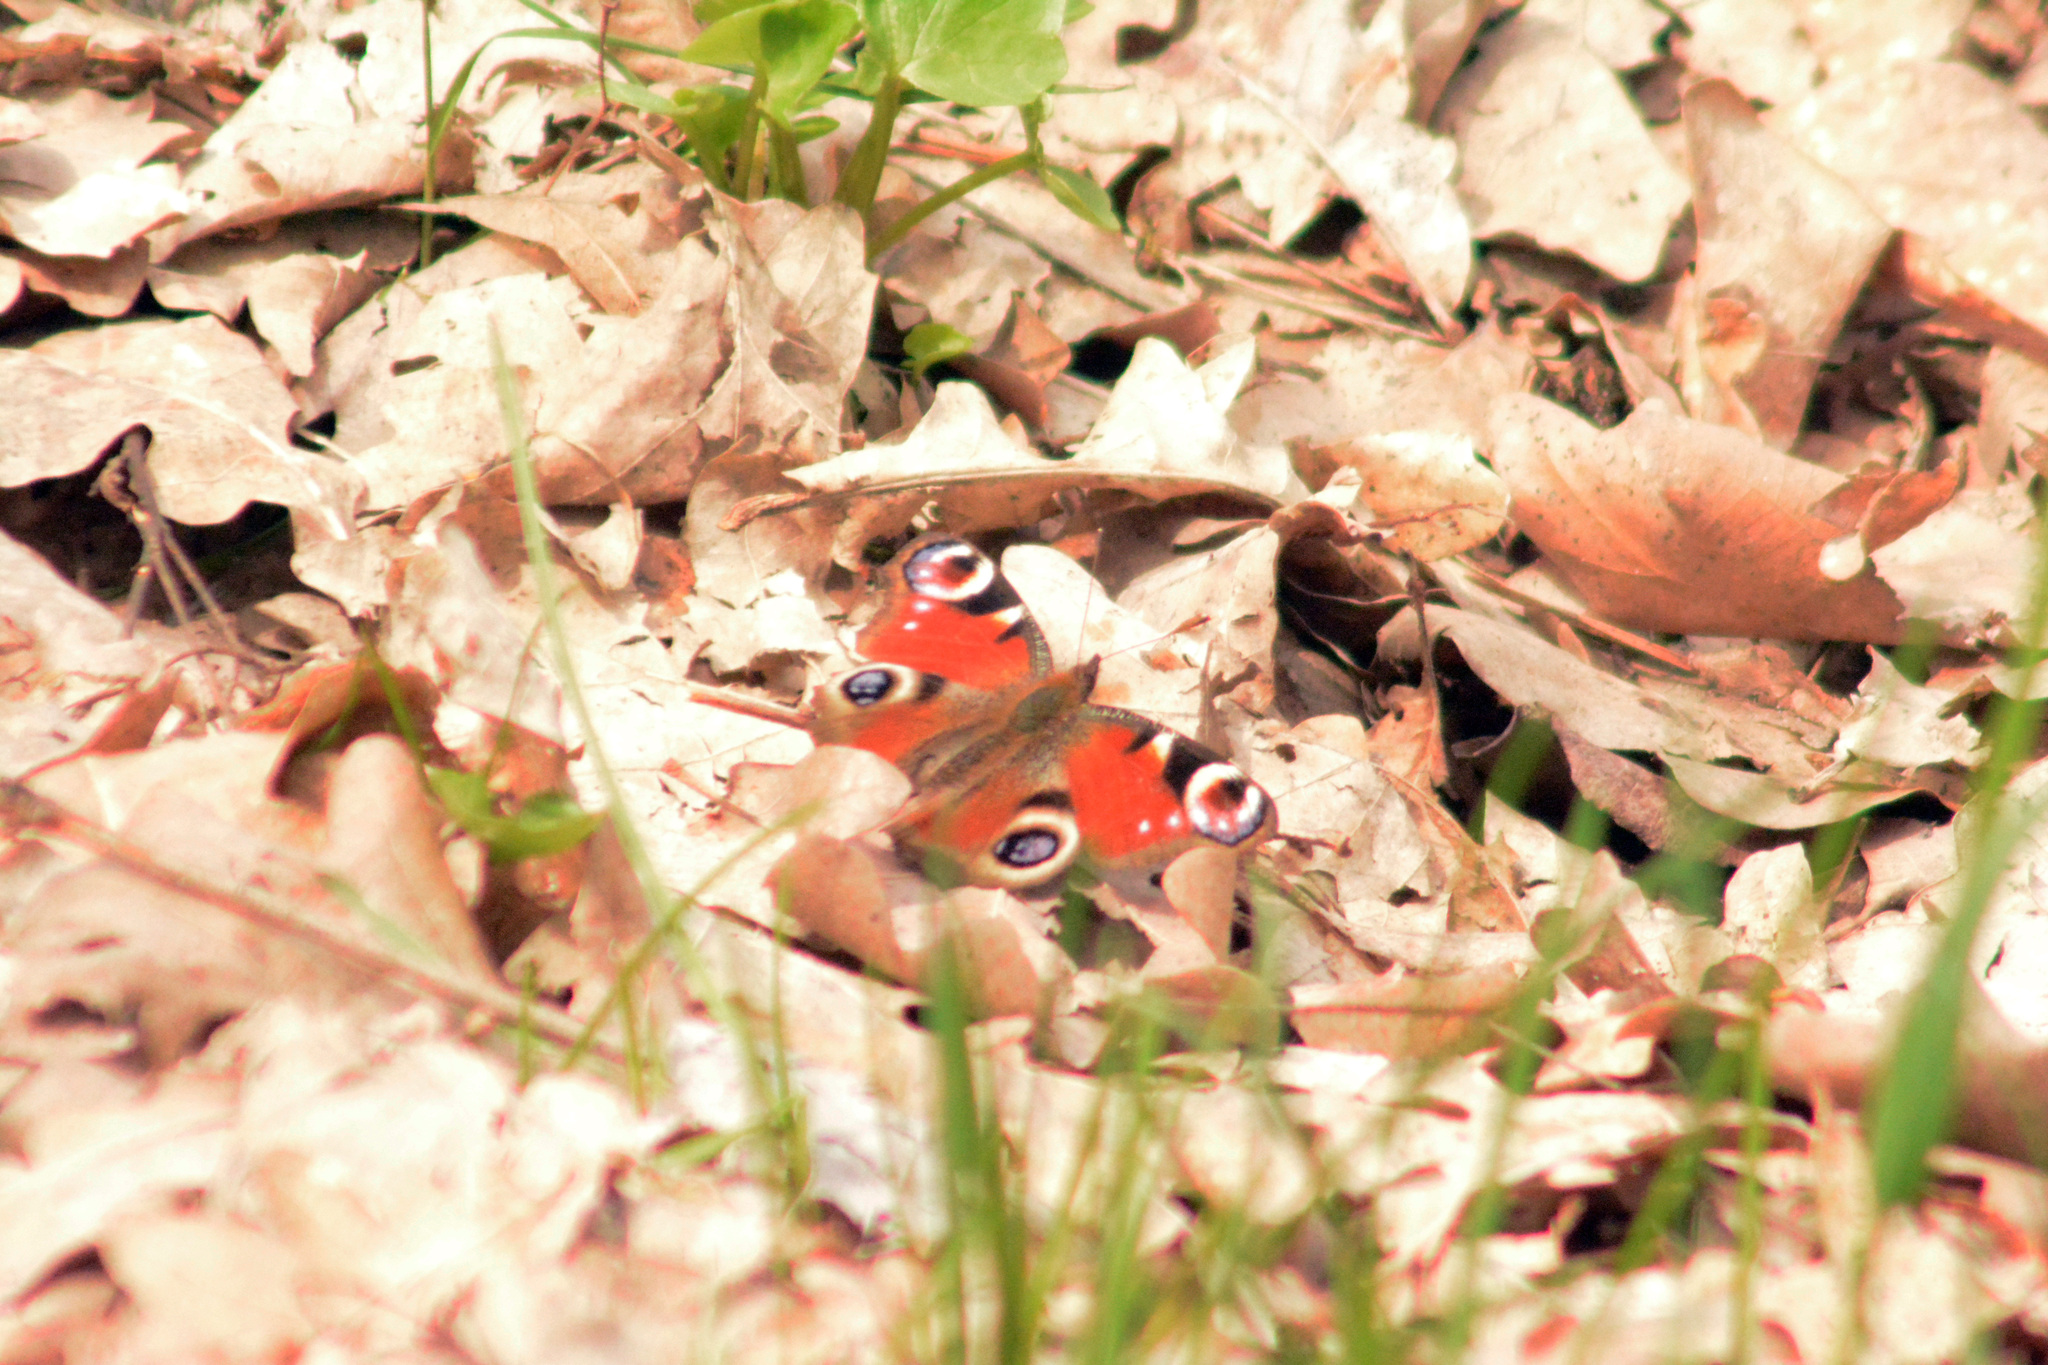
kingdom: Animalia
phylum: Arthropoda
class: Insecta
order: Lepidoptera
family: Nymphalidae
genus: Aglais
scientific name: Aglais io
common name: Peacock
